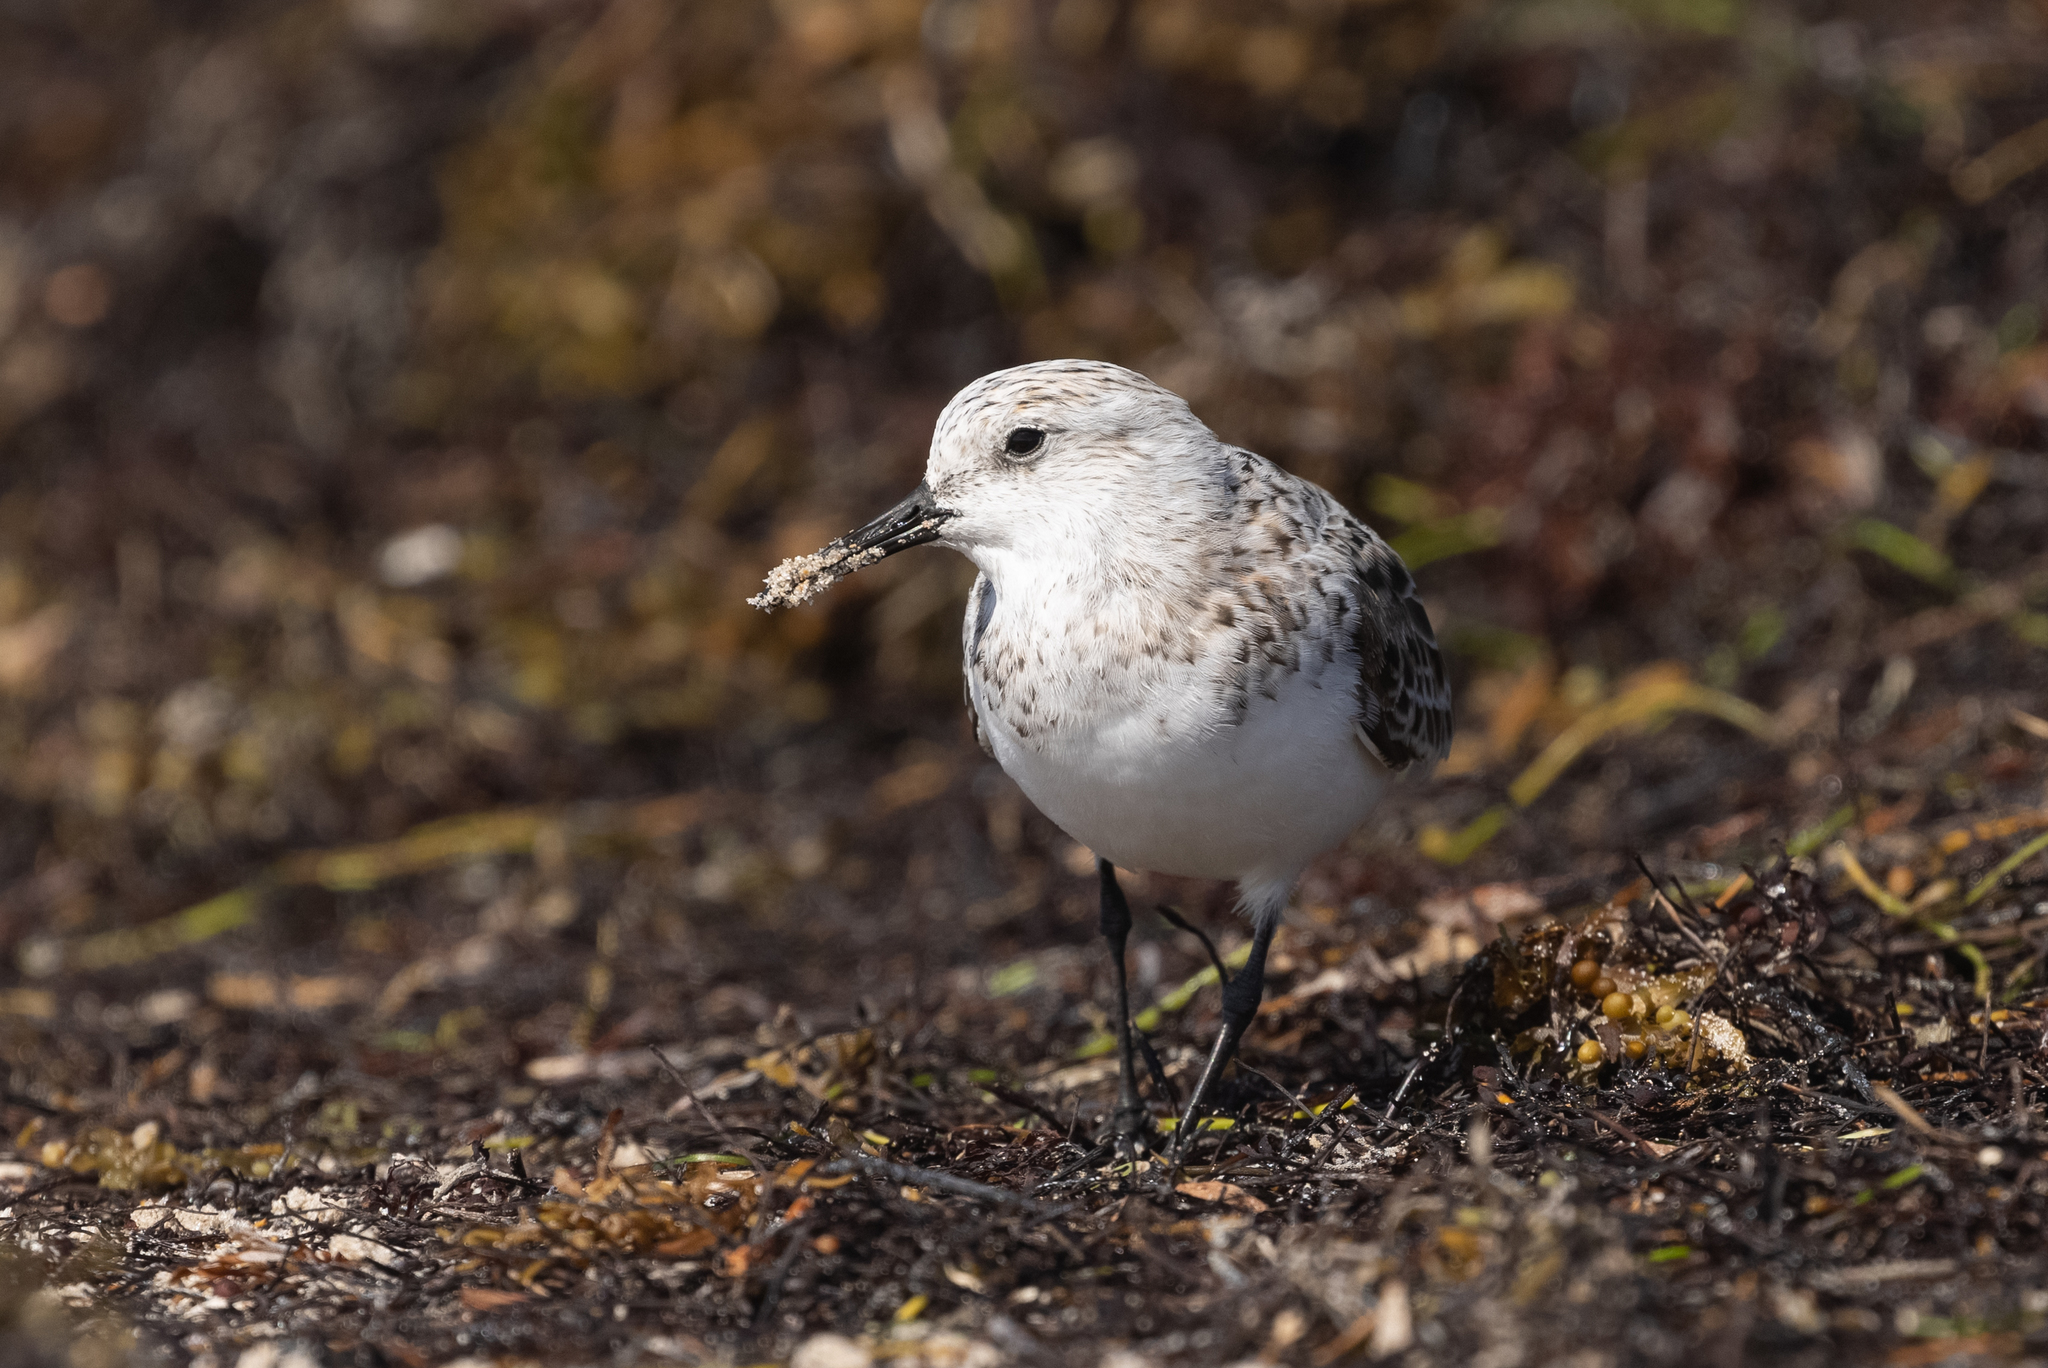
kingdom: Animalia
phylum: Chordata
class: Aves
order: Charadriiformes
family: Scolopacidae
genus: Calidris
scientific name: Calidris alba
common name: Sanderling
